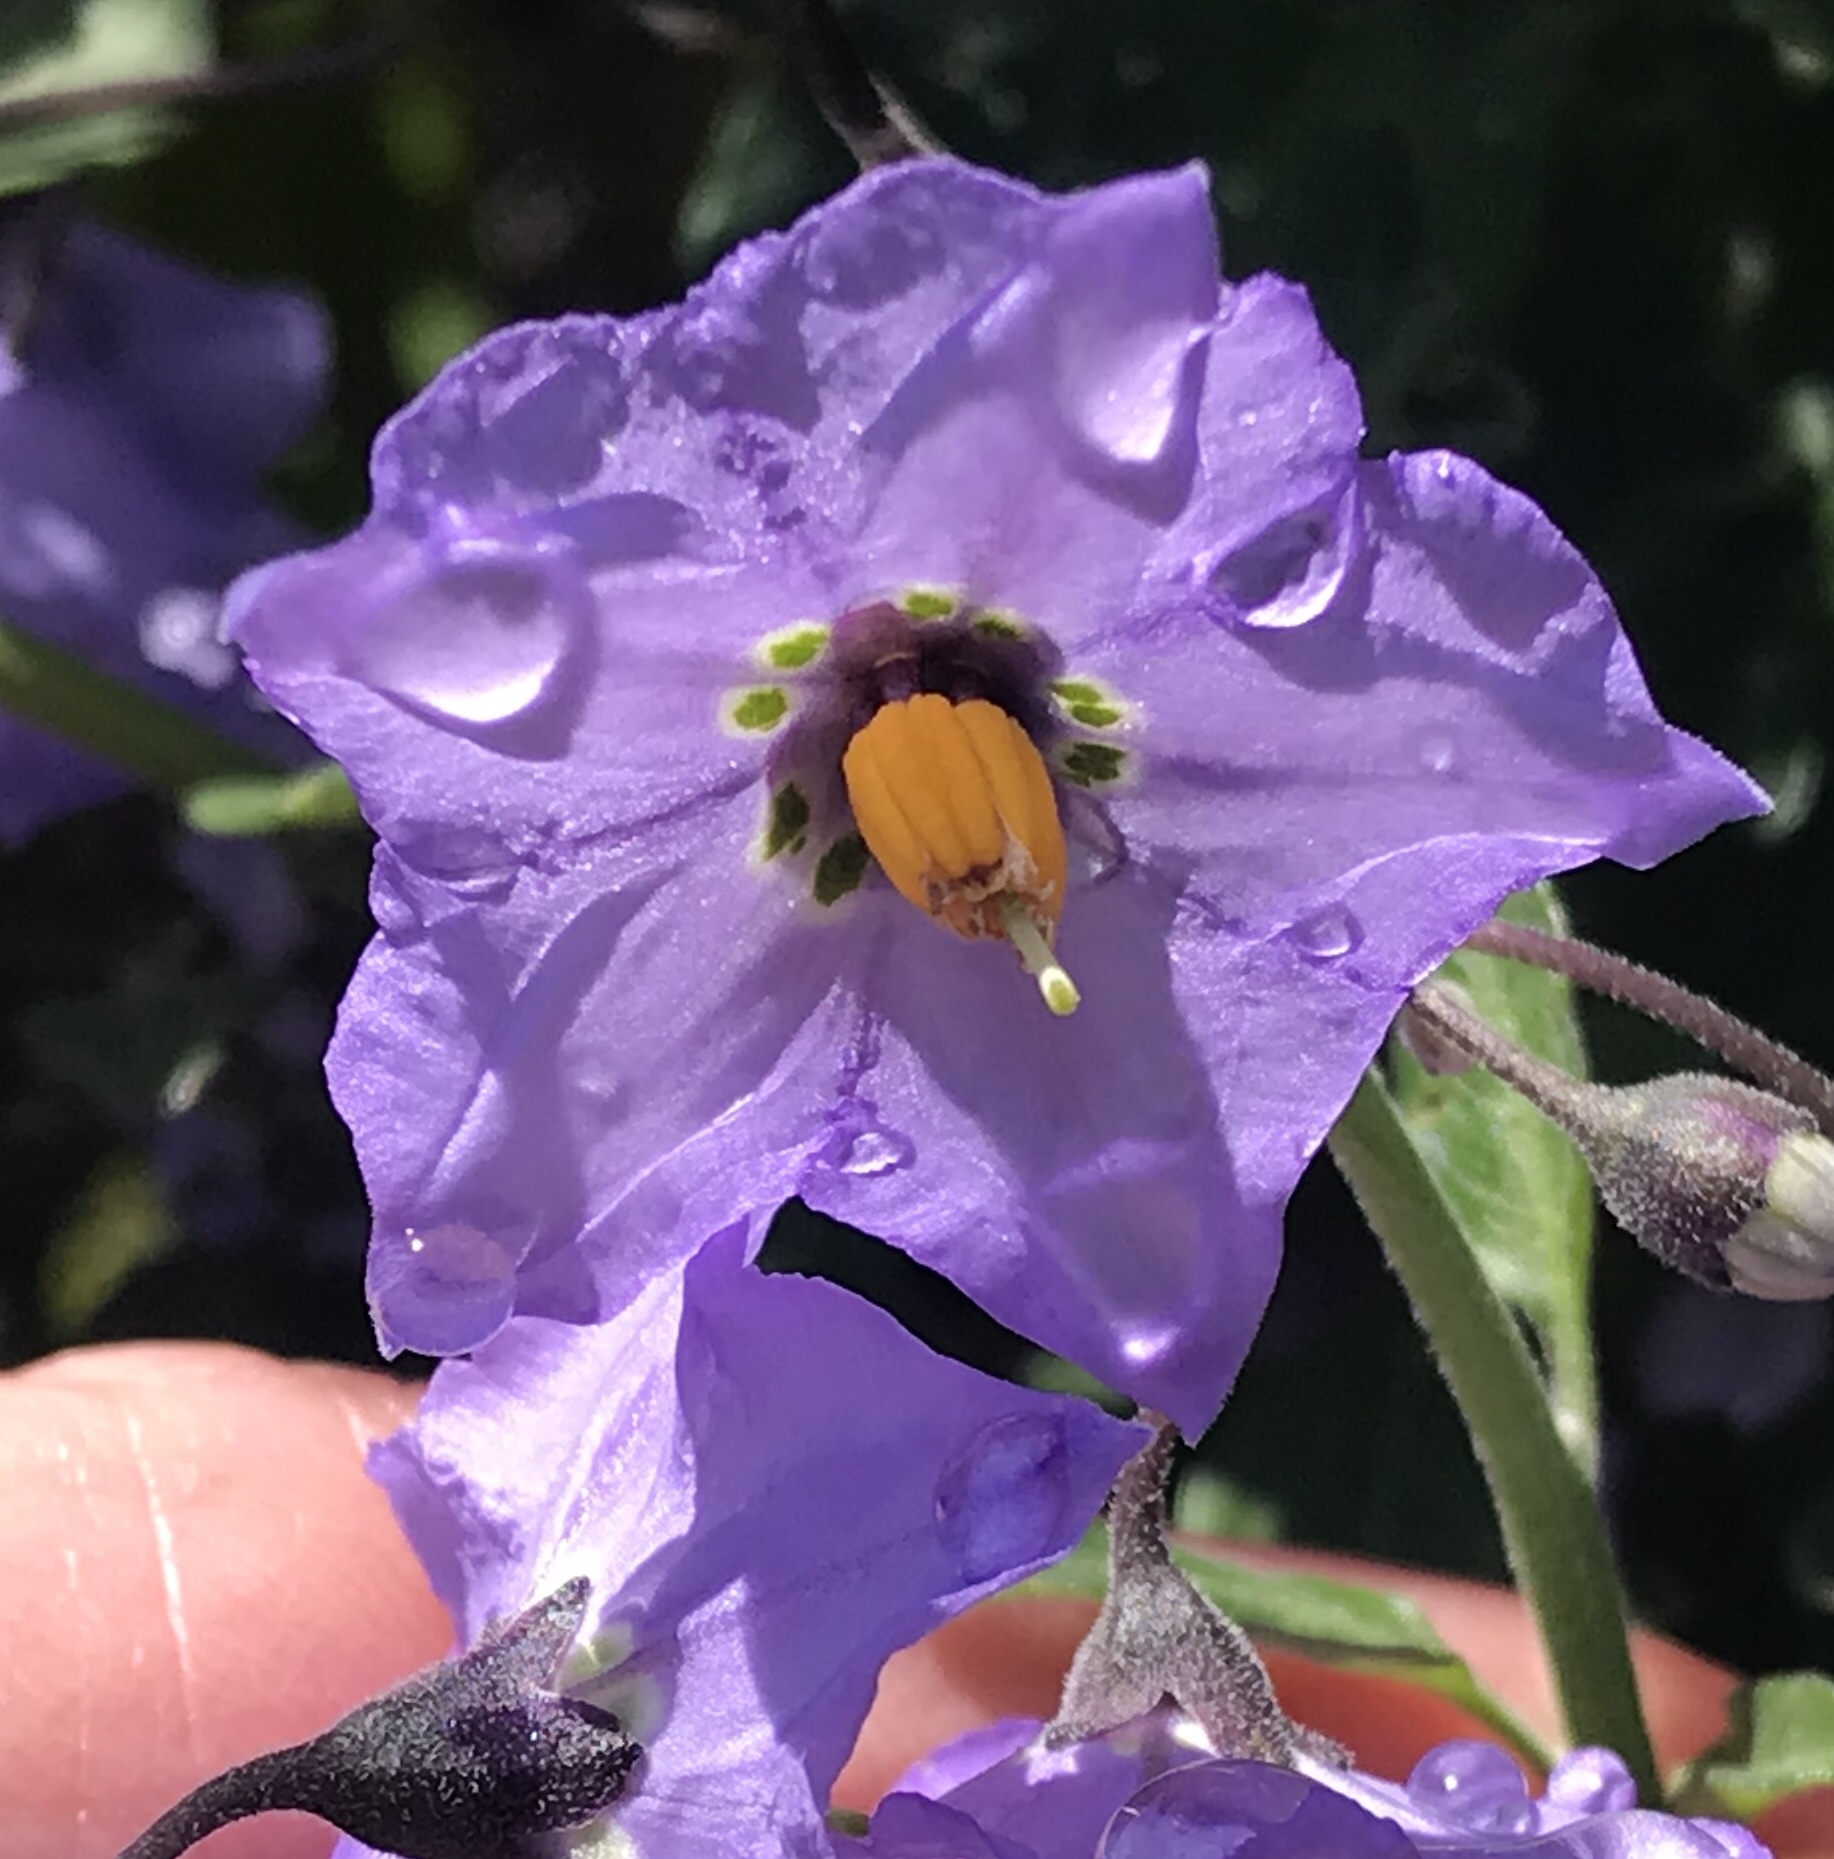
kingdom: Plantae
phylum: Tracheophyta
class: Magnoliopsida
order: Solanales
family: Solanaceae
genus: Solanum
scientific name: Solanum umbelliferum
